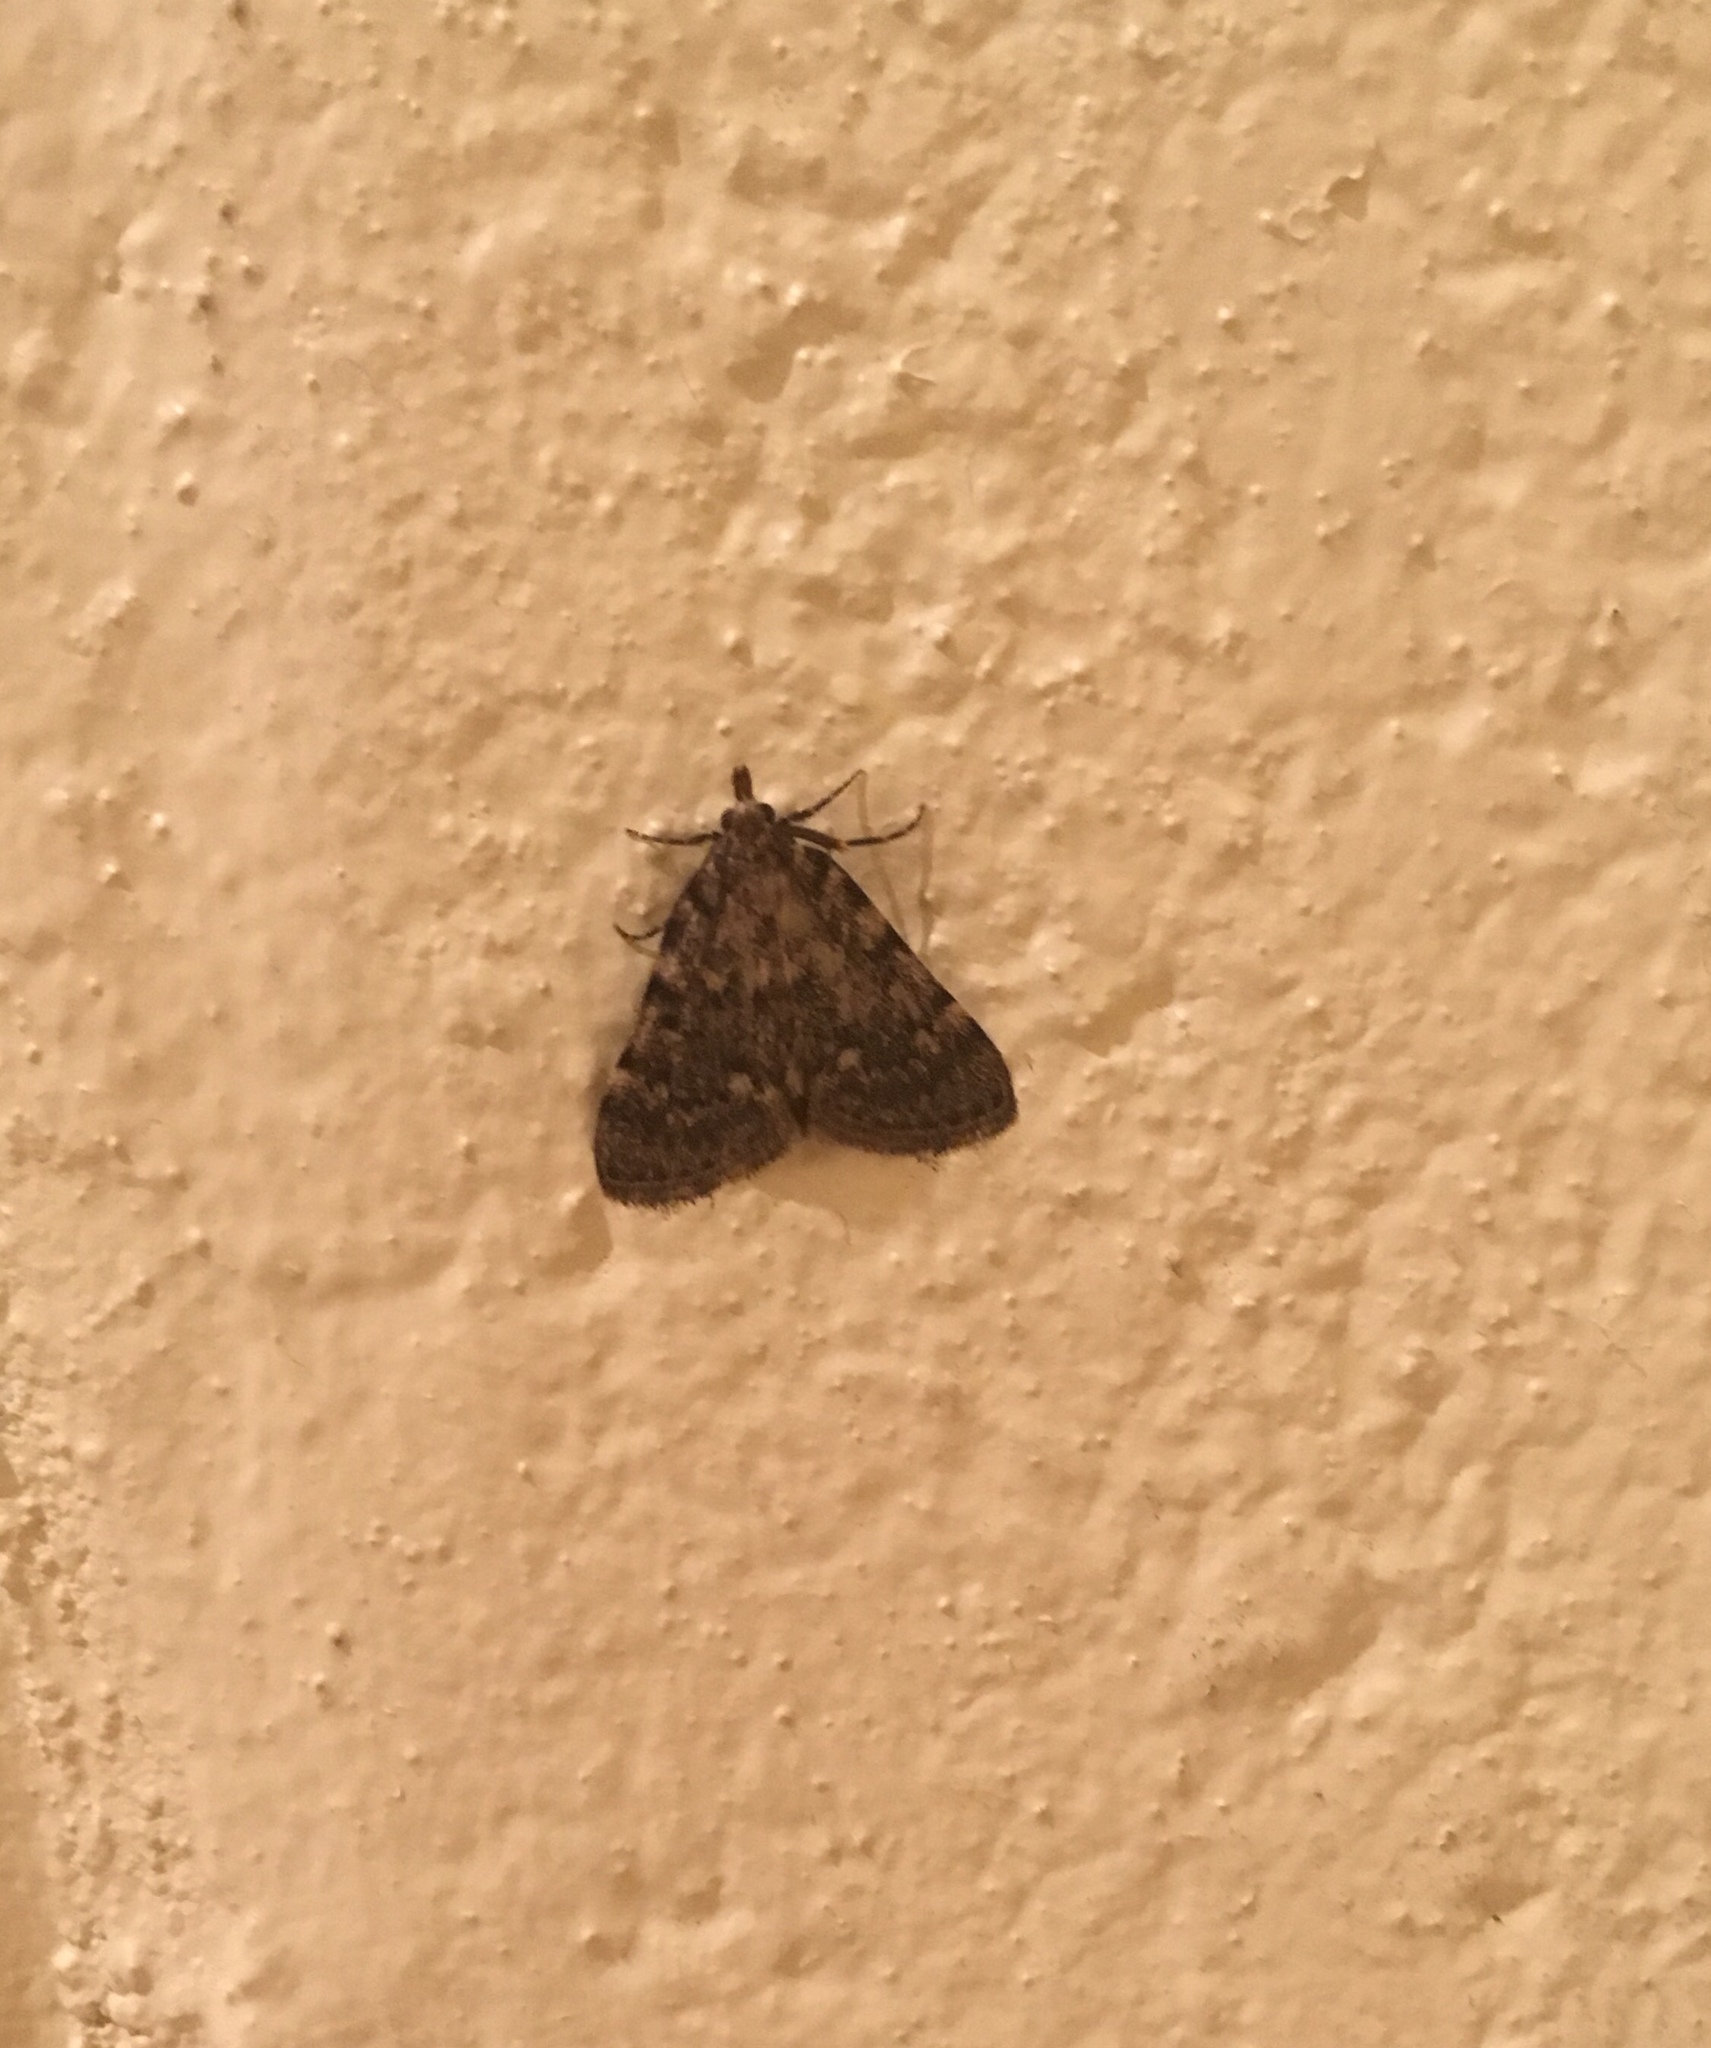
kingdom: Animalia
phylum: Arthropoda
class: Insecta
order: Lepidoptera
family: Pyralidae
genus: Aglossa
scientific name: Aglossa pinguinalis
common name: Large tabby
